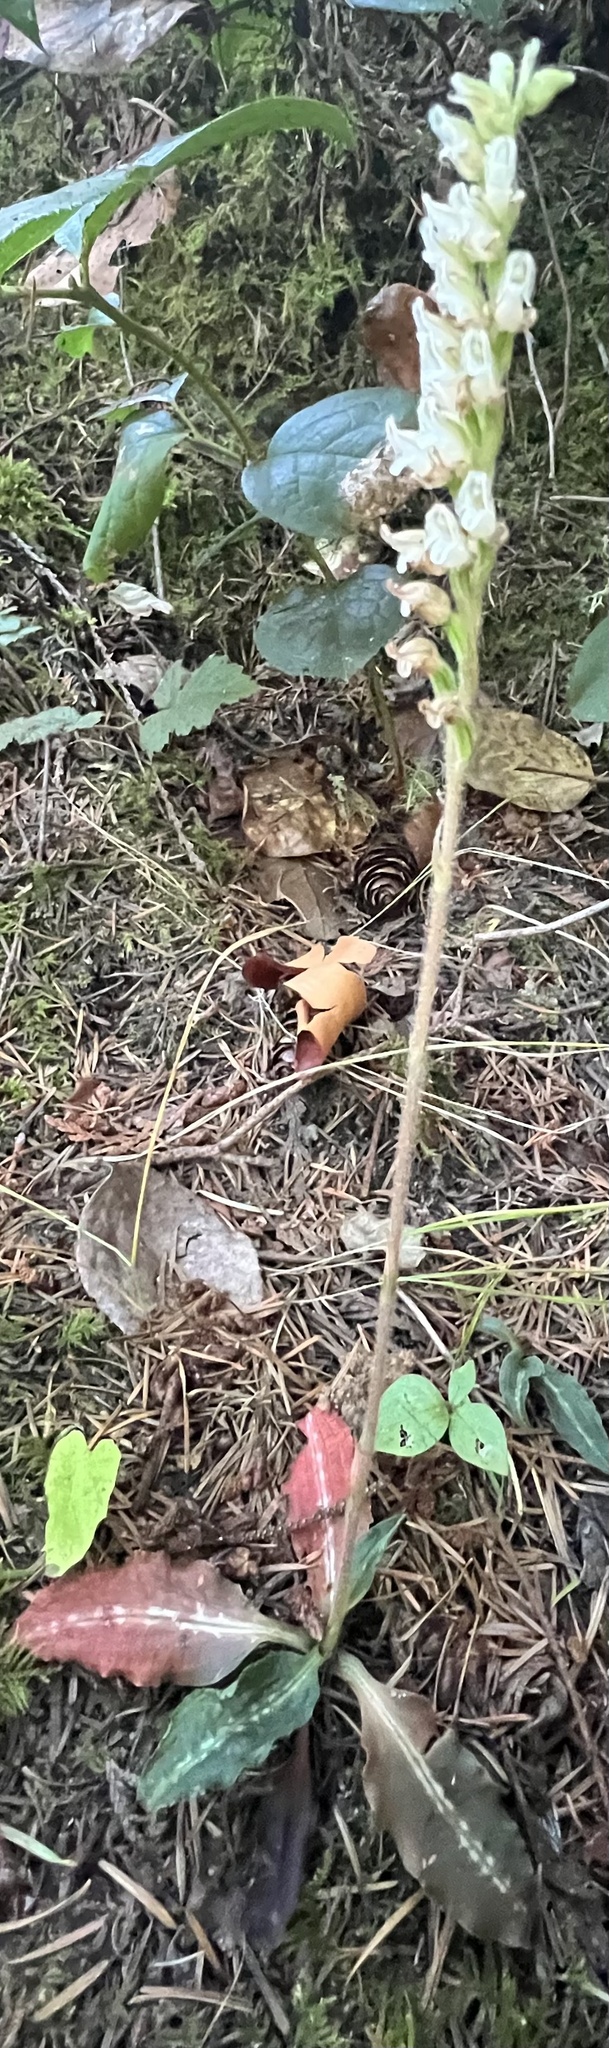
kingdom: Plantae
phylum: Tracheophyta
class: Liliopsida
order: Asparagales
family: Orchidaceae
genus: Goodyera
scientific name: Goodyera oblongifolia
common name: Giant rattlesnake-plantain
